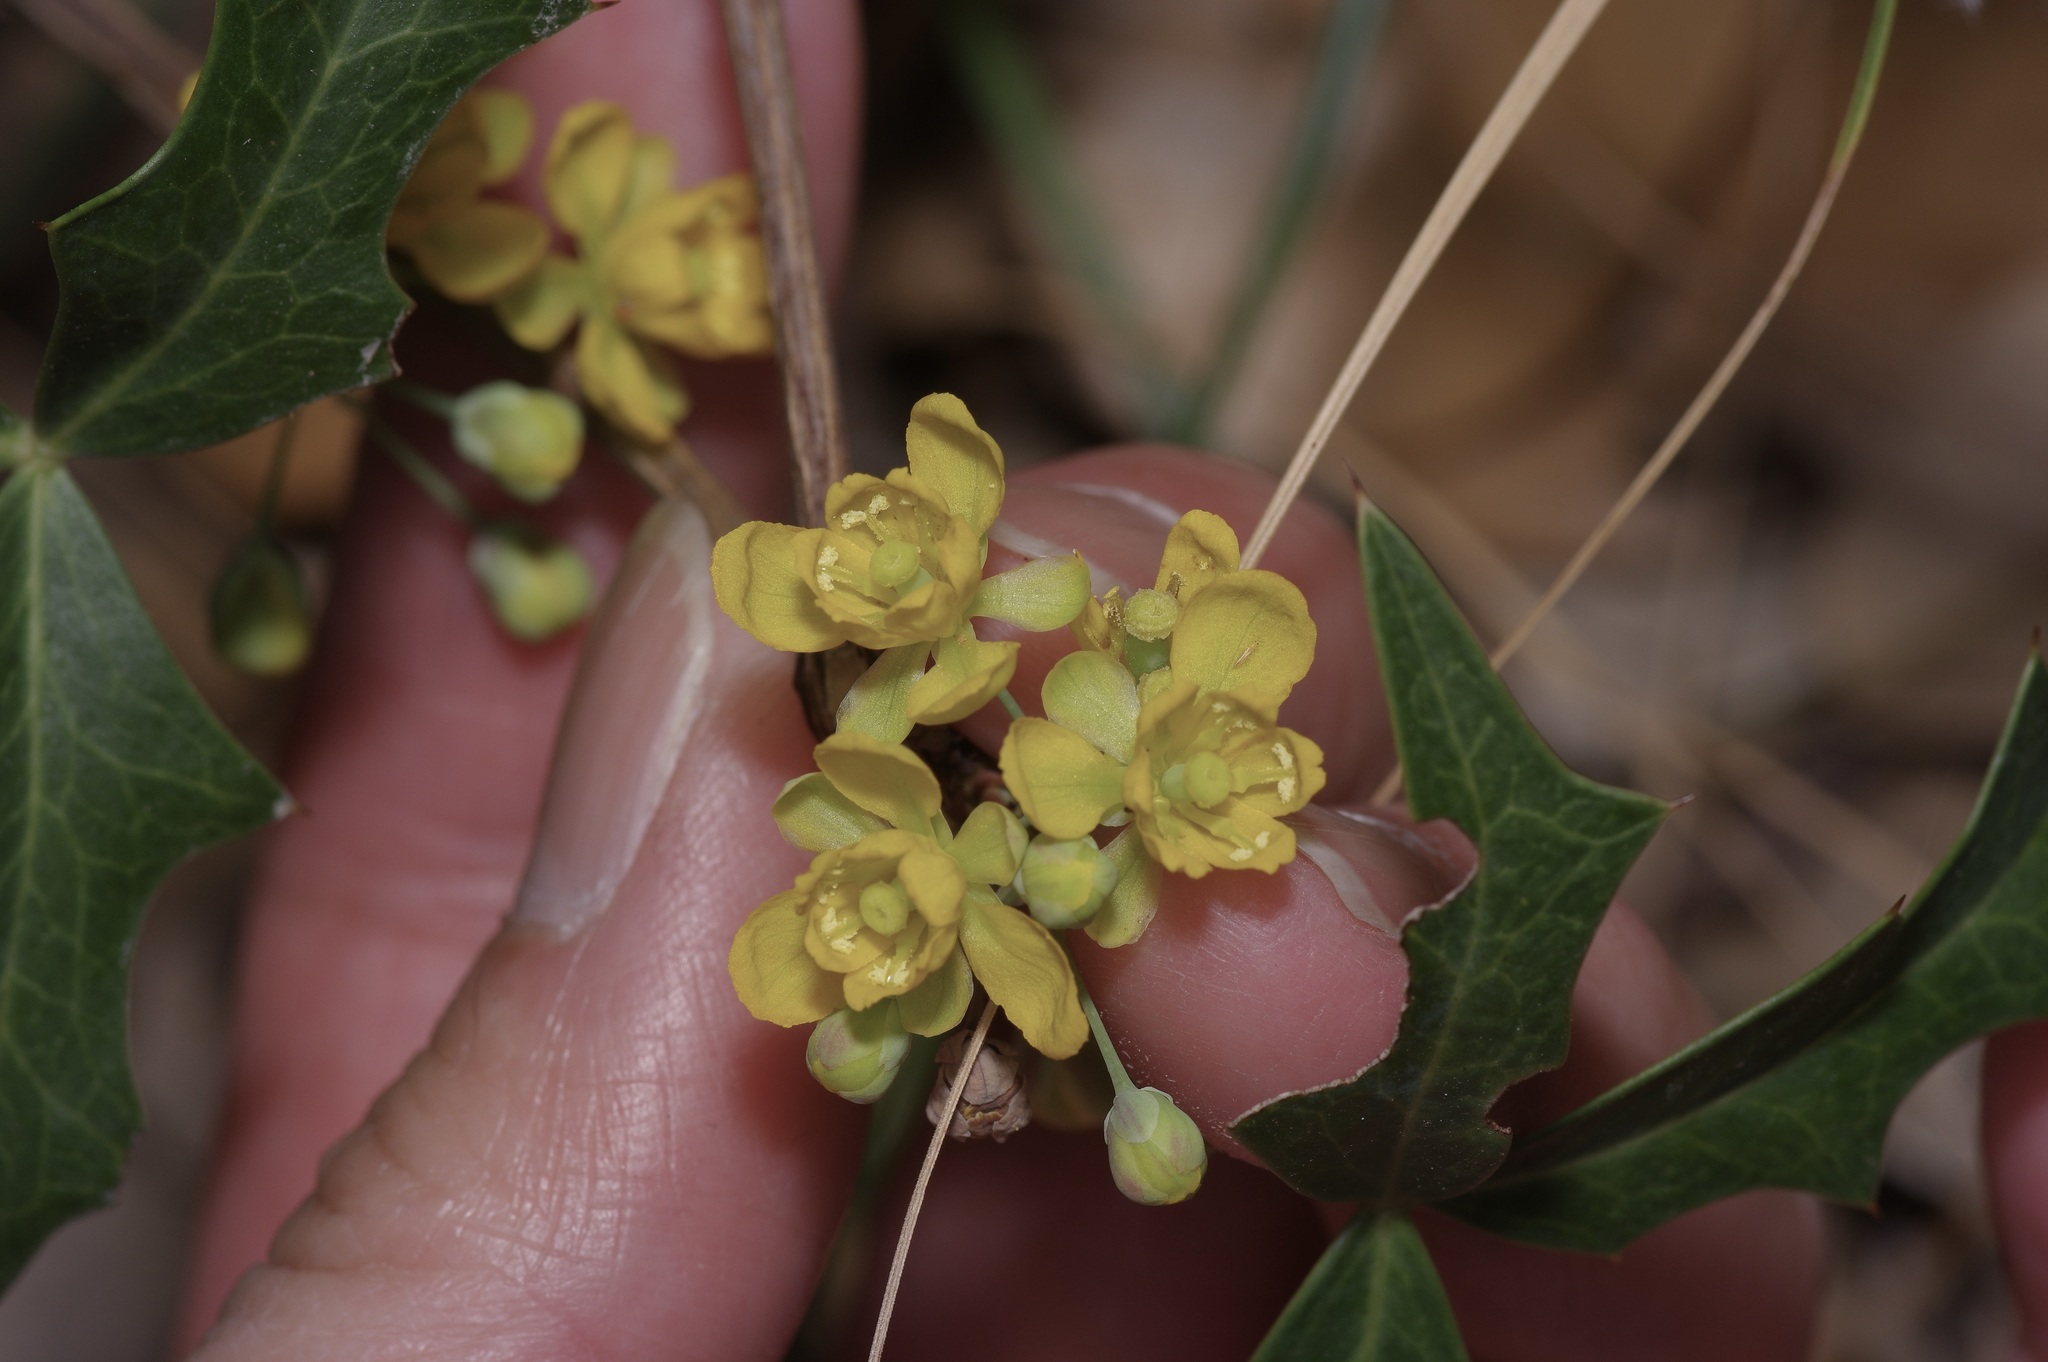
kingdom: Plantae
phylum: Tracheophyta
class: Magnoliopsida
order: Ranunculales
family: Berberidaceae
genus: Alloberberis
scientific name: Alloberberis trifoliolata
